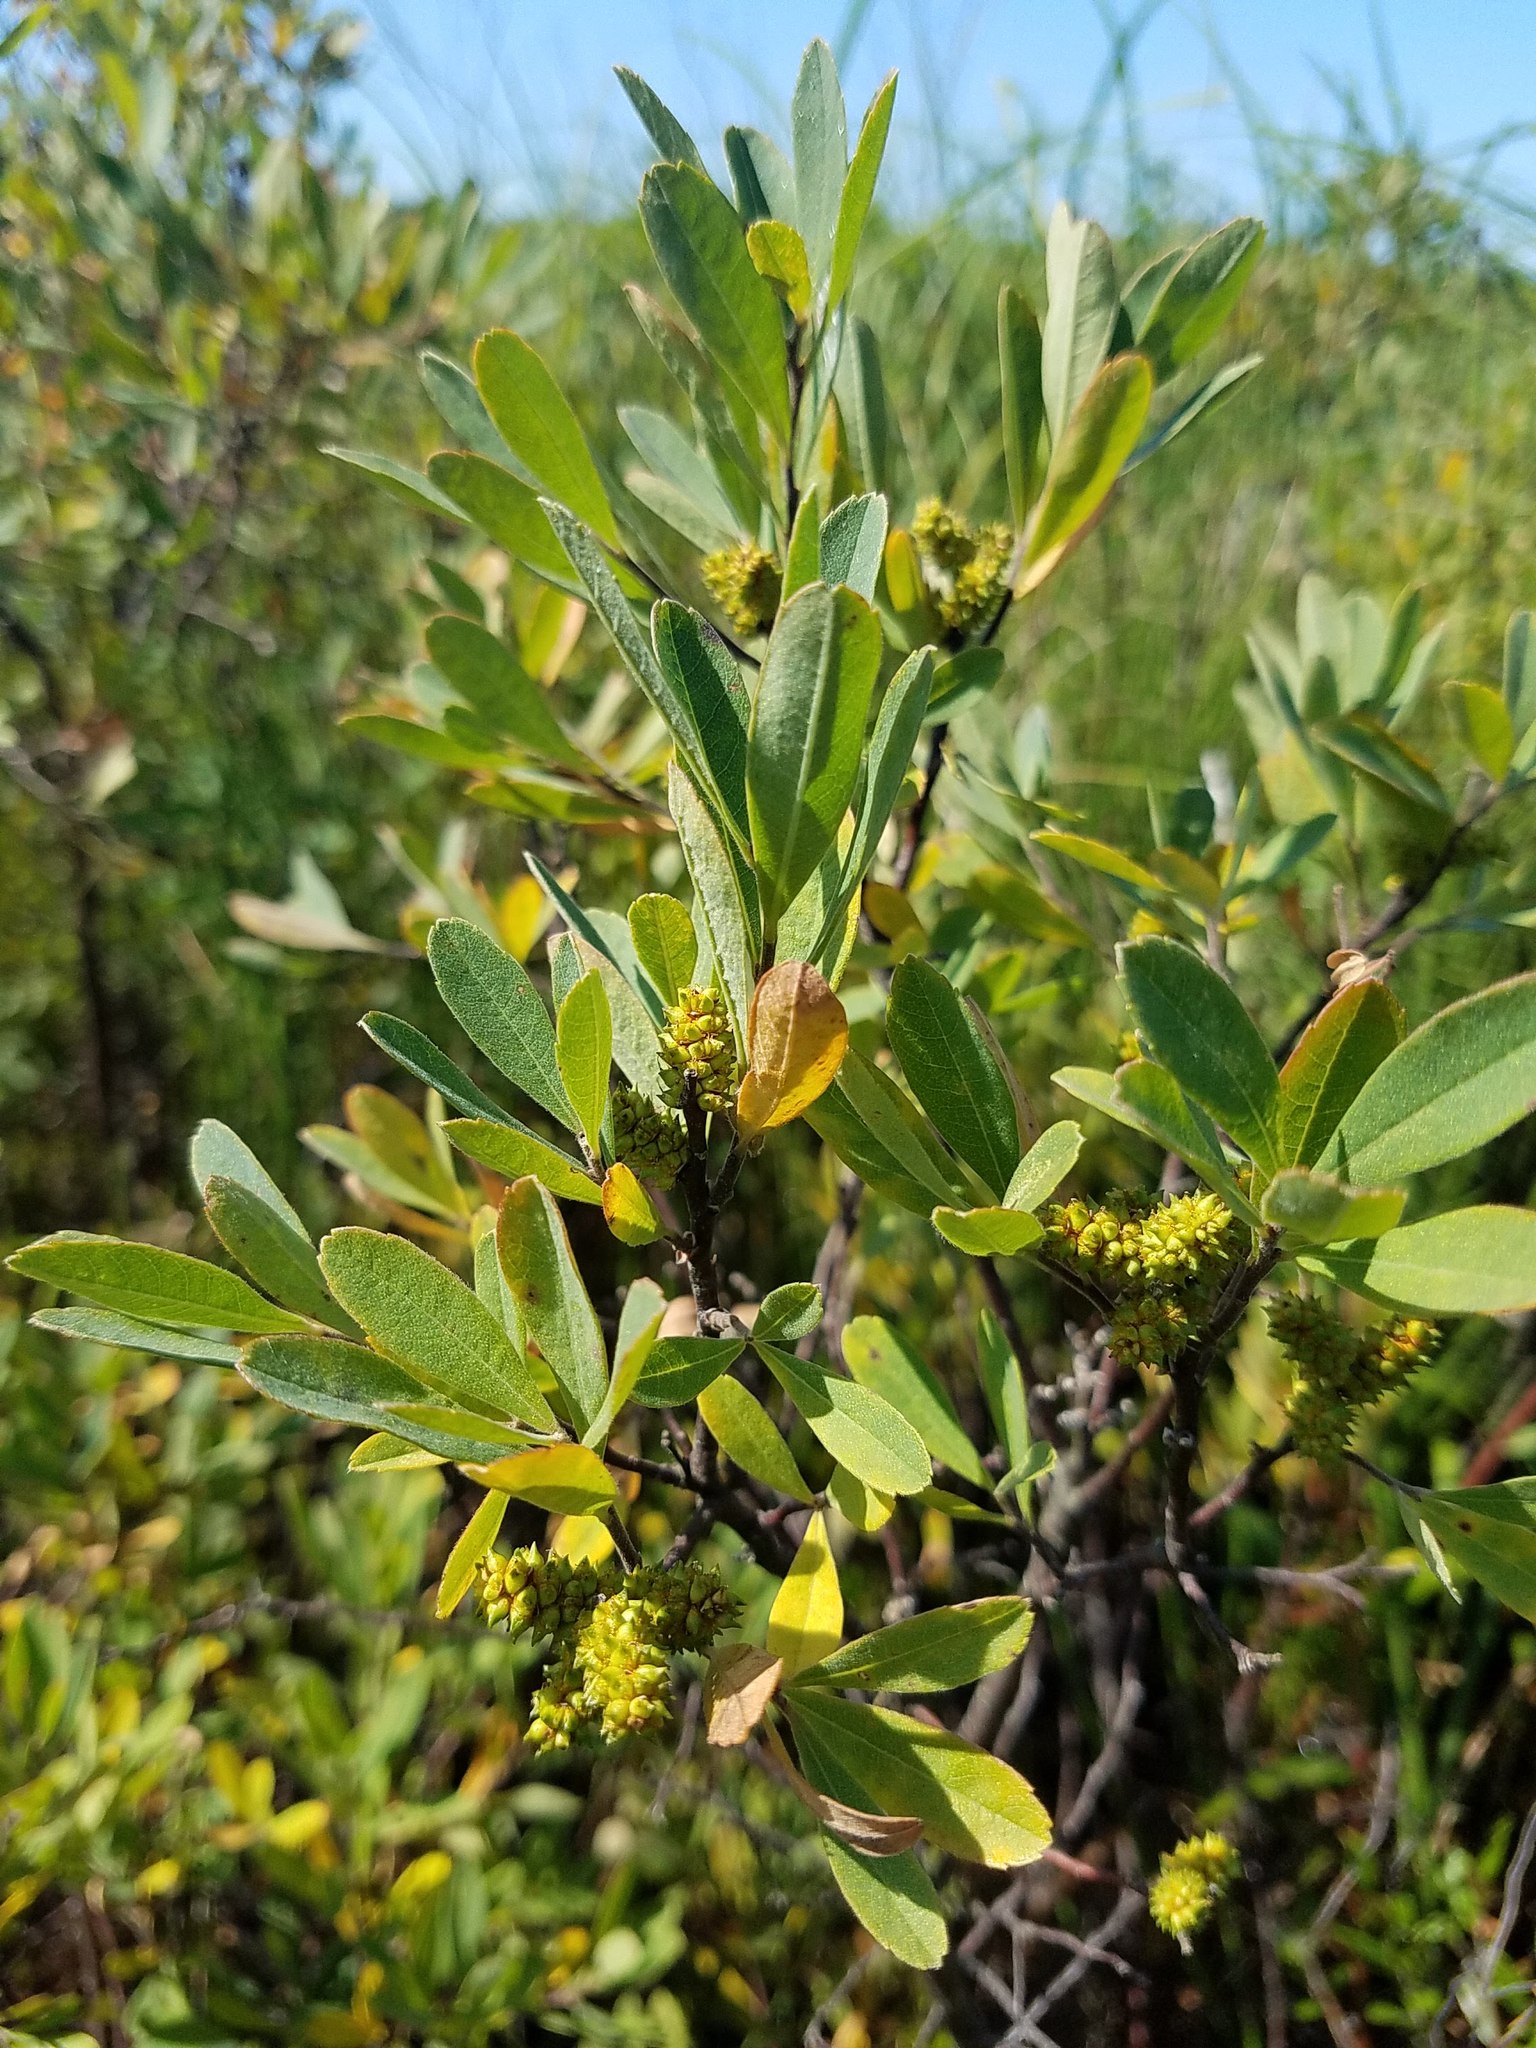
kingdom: Plantae
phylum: Tracheophyta
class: Magnoliopsida
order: Fagales
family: Myricaceae
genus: Myrica
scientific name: Myrica gale
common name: Sweet gale
